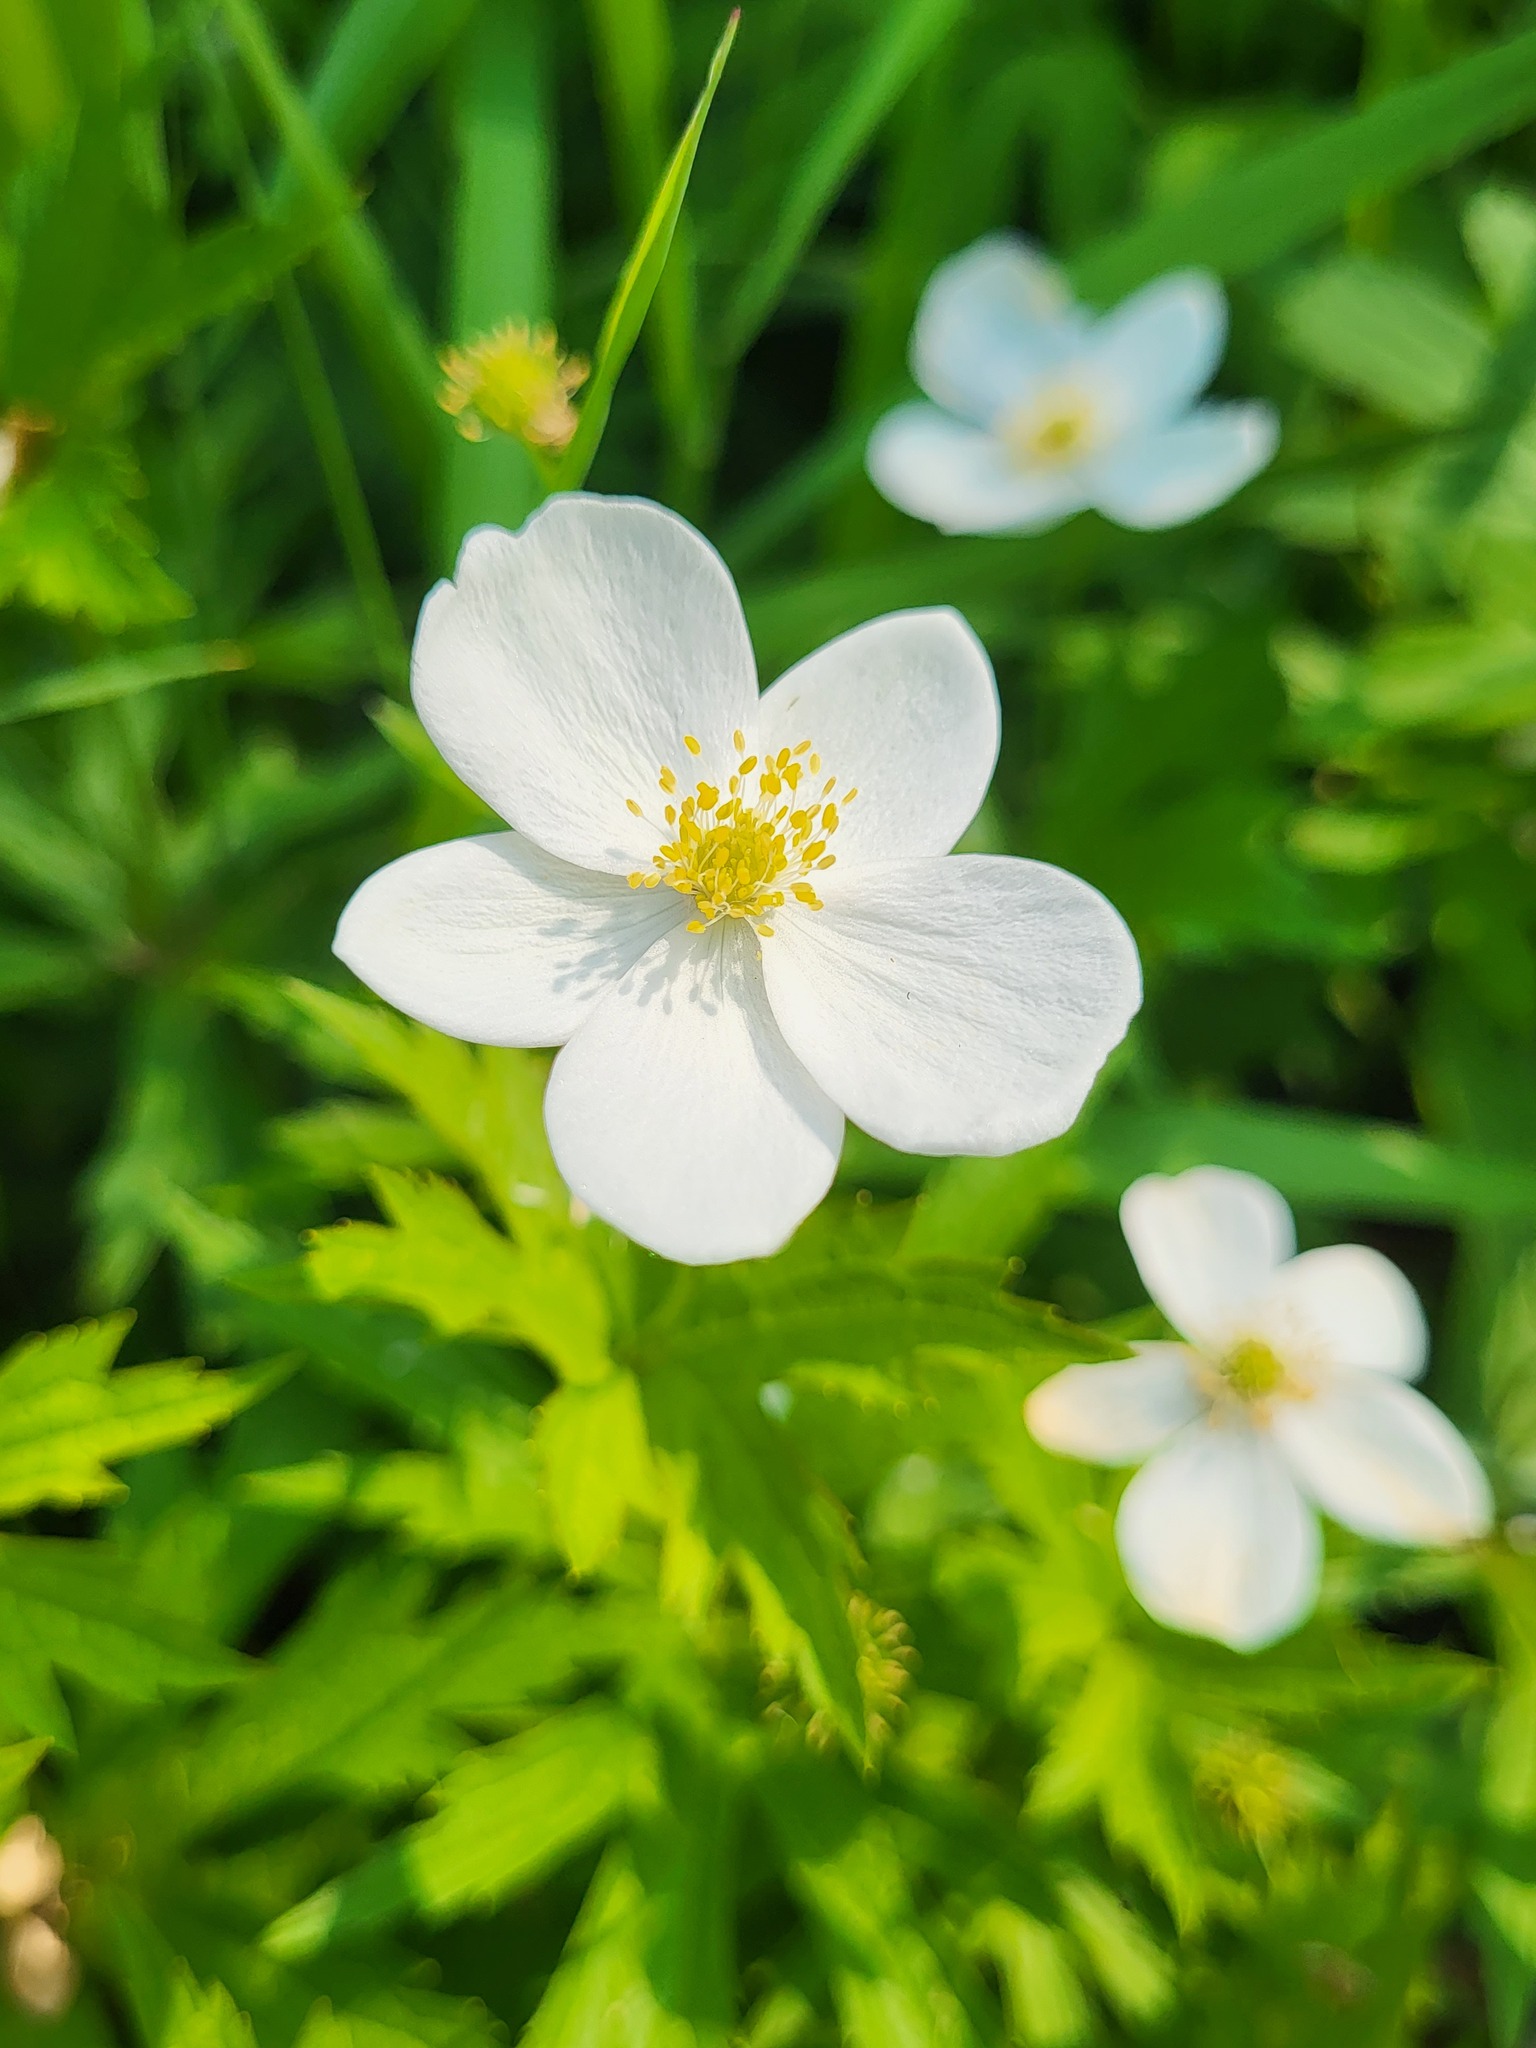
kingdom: Plantae
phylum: Tracheophyta
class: Magnoliopsida
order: Ranunculales
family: Ranunculaceae
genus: Anemonastrum
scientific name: Anemonastrum canadense
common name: Canada anemone
